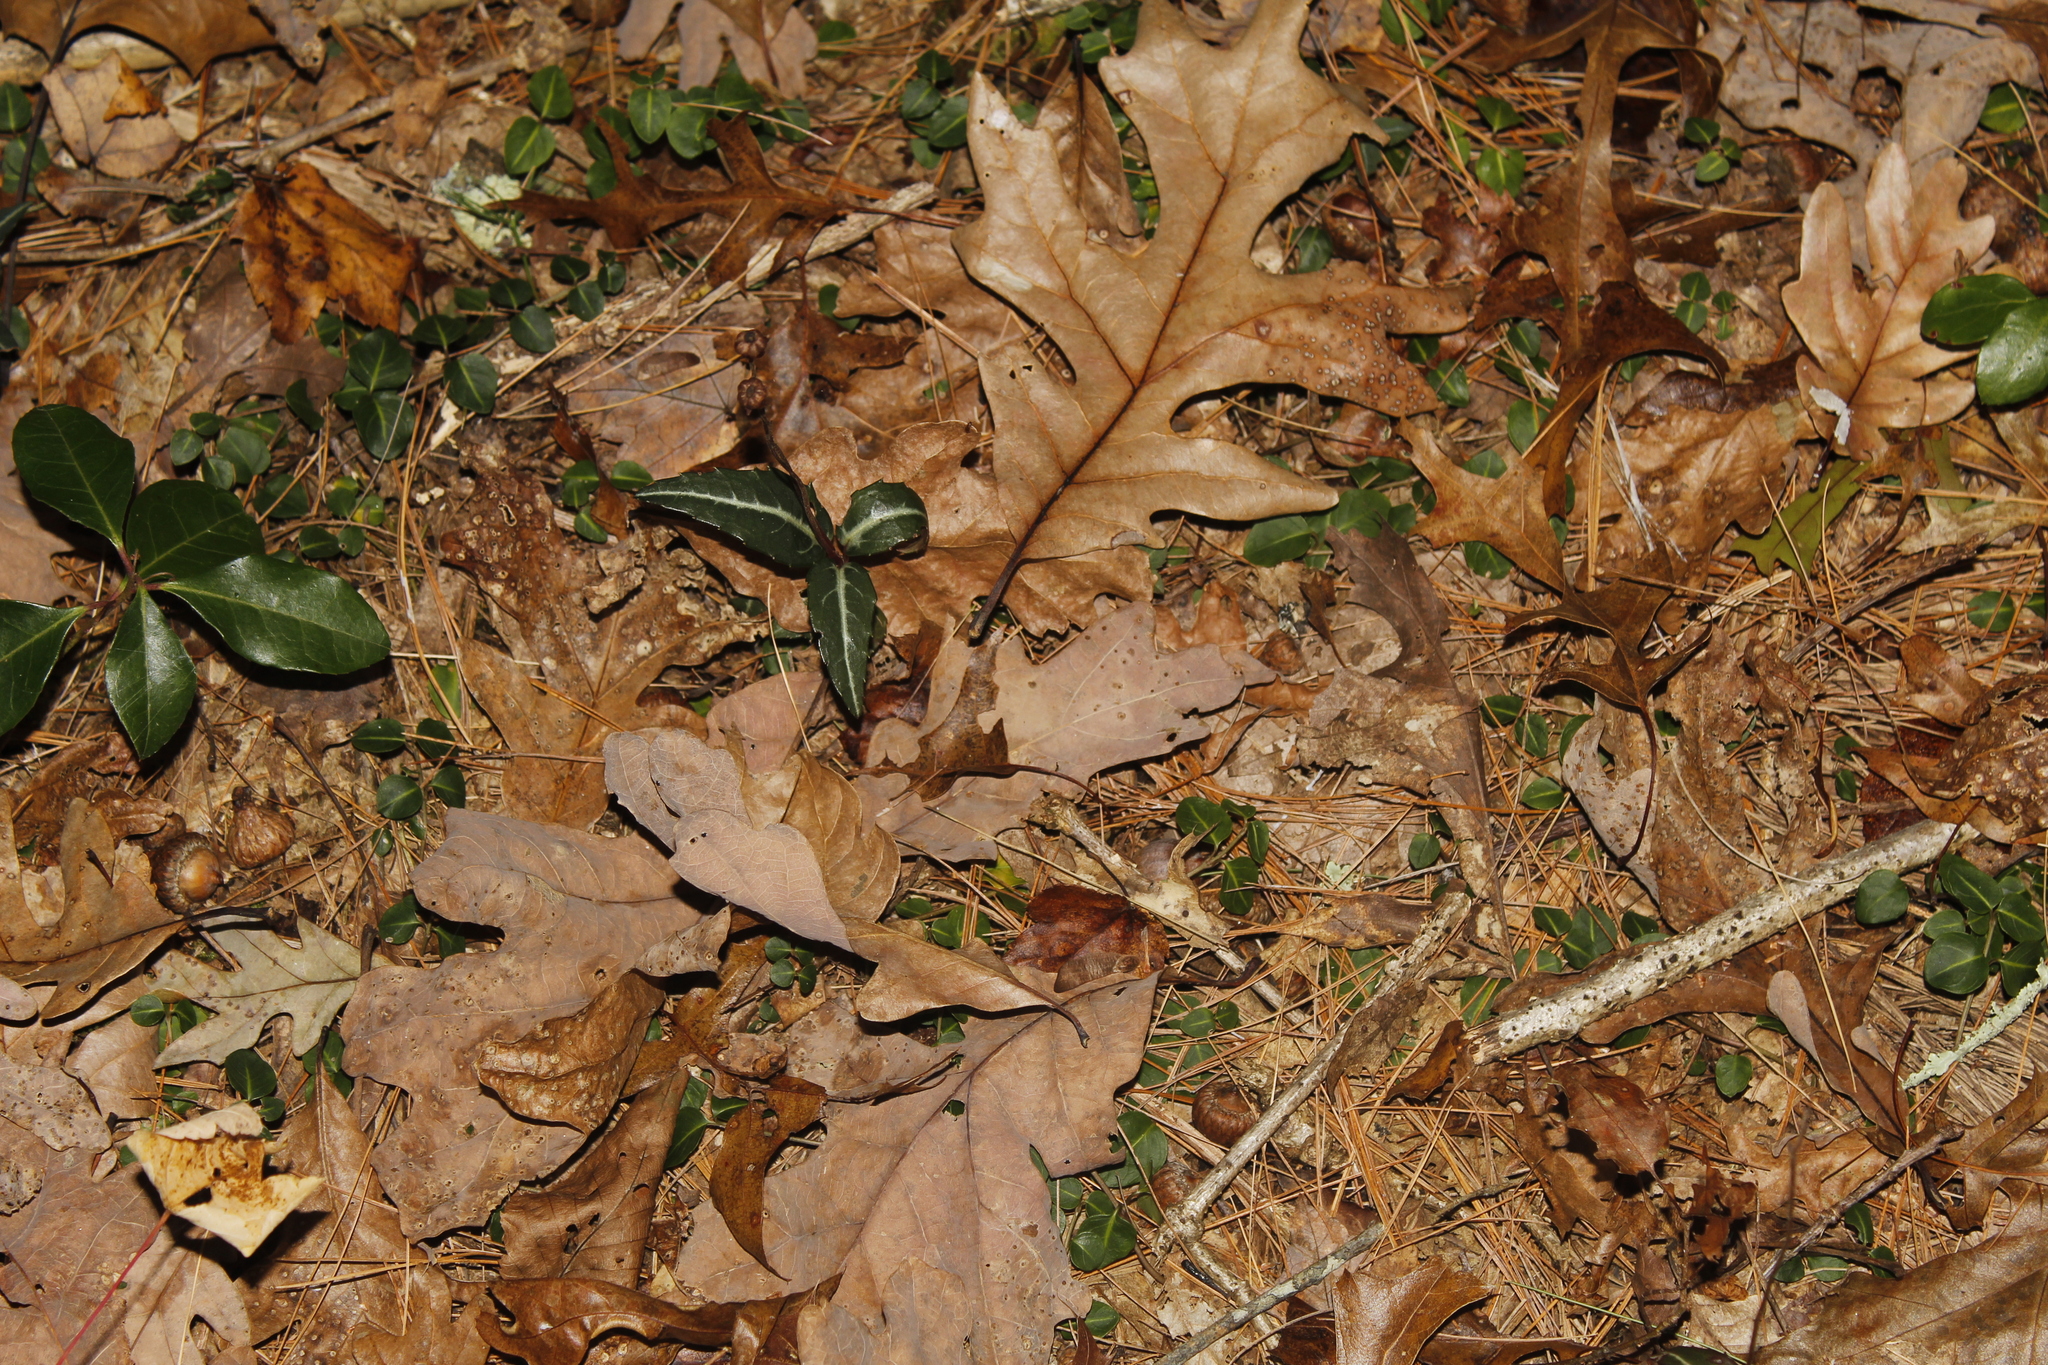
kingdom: Plantae
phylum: Tracheophyta
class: Magnoliopsida
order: Ericales
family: Ericaceae
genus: Chimaphila
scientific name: Chimaphila maculata
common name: Spotted pipsissewa
